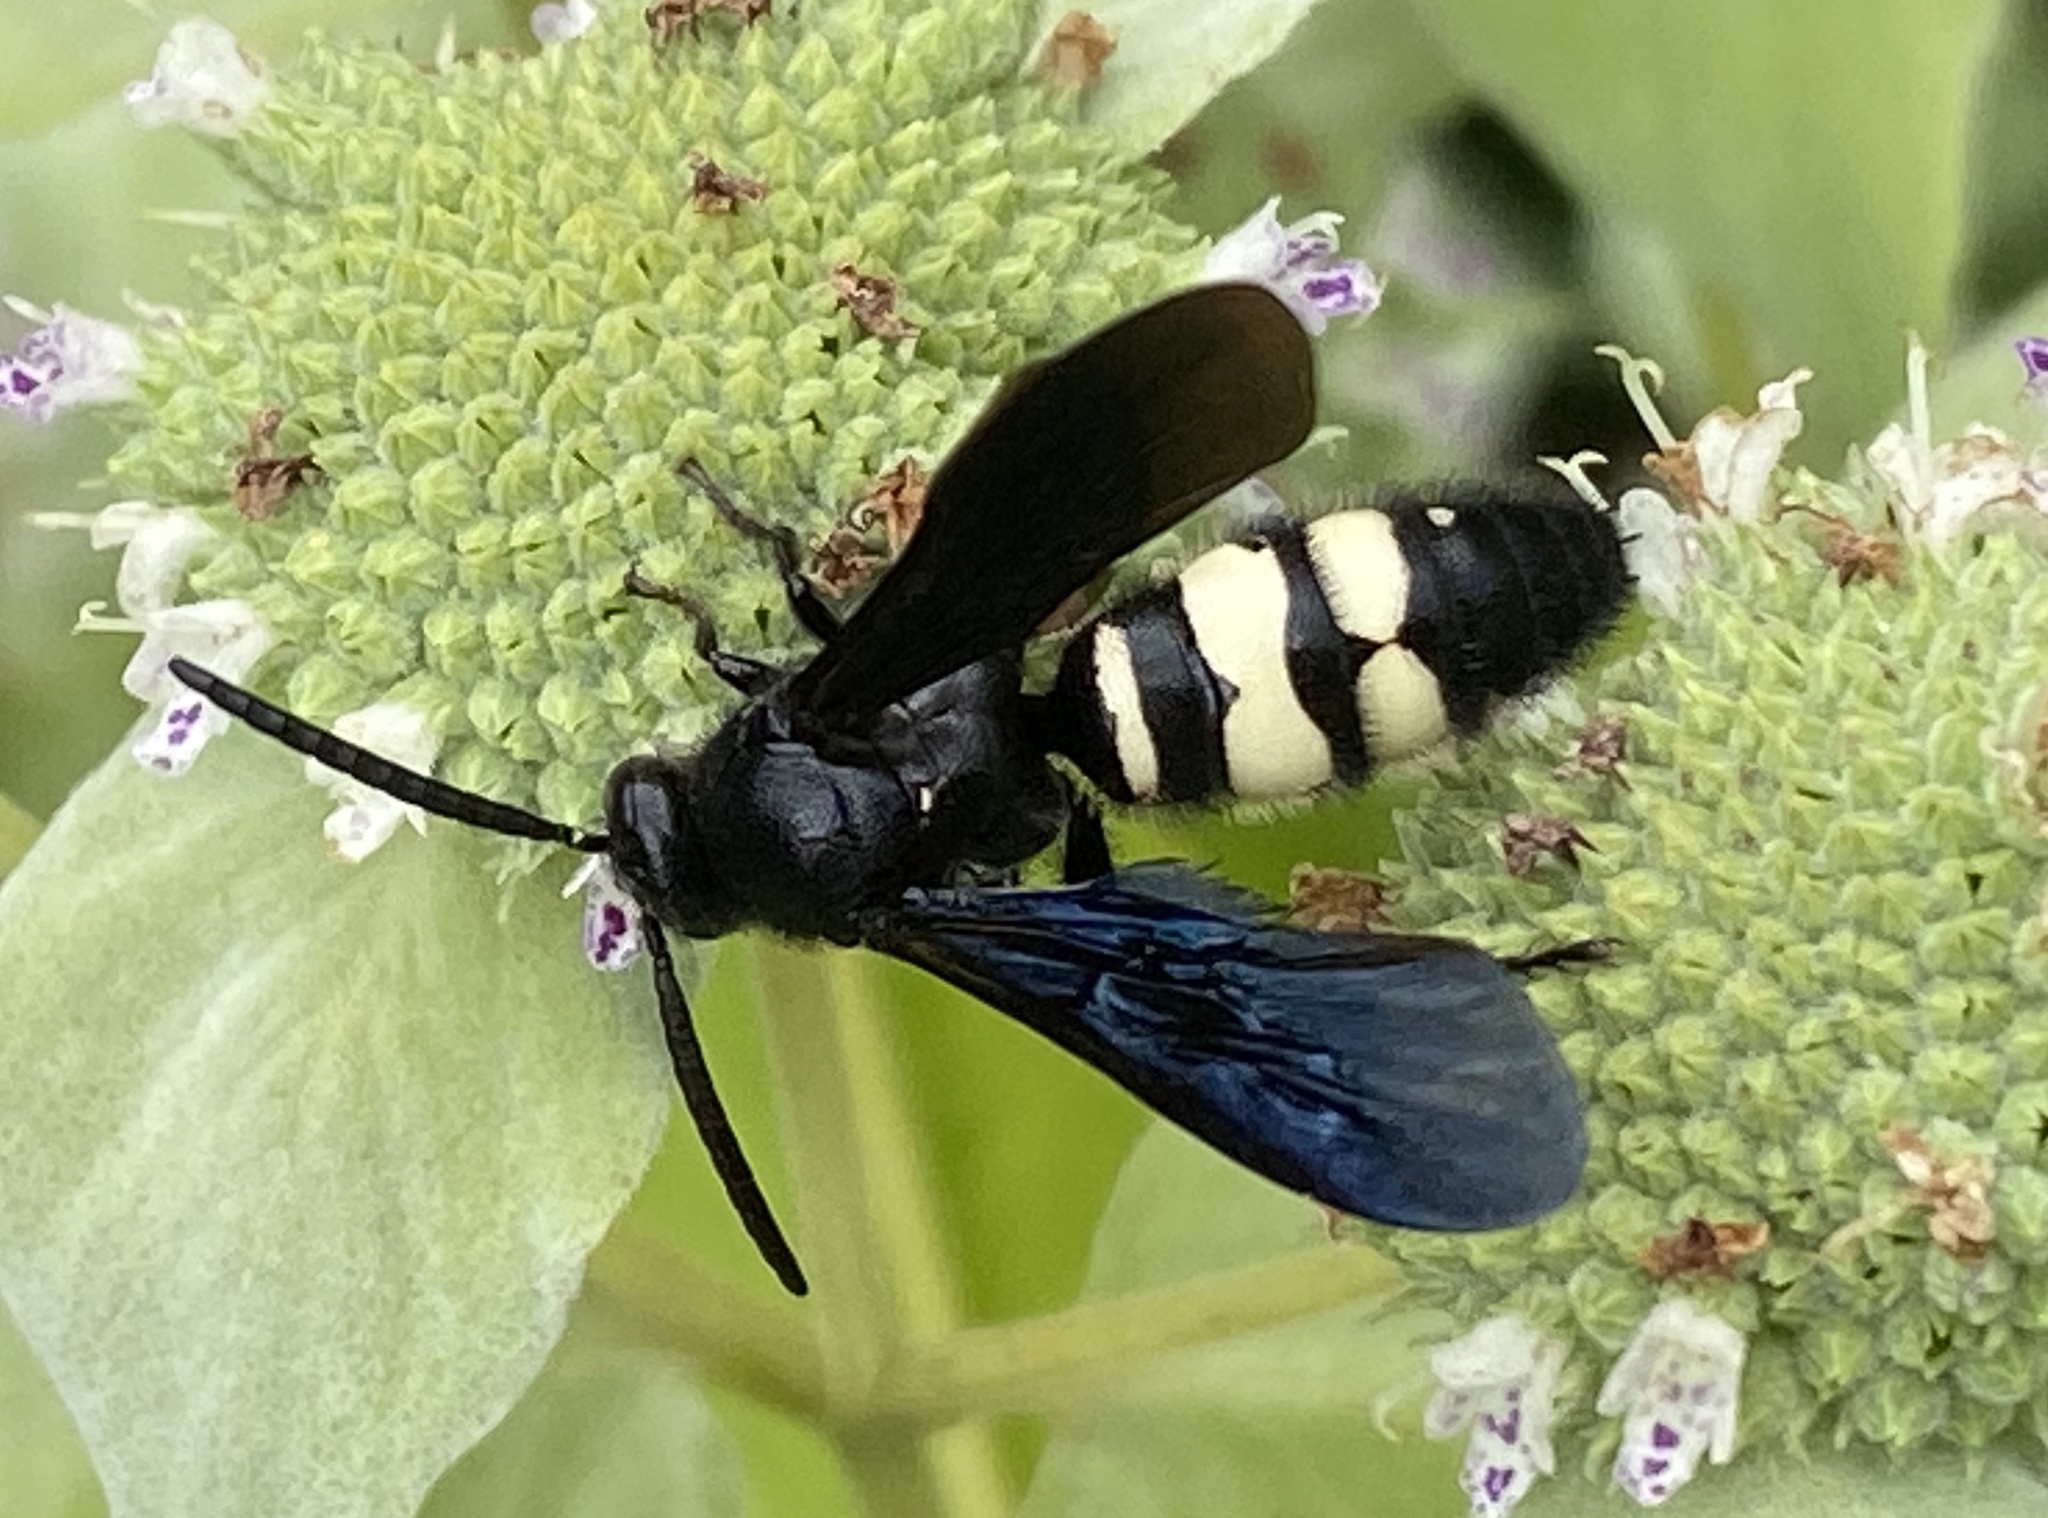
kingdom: Animalia
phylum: Arthropoda
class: Insecta
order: Hymenoptera
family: Scoliidae
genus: Scolia
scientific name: Scolia bicincta
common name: Double-banded scoliid wasp
